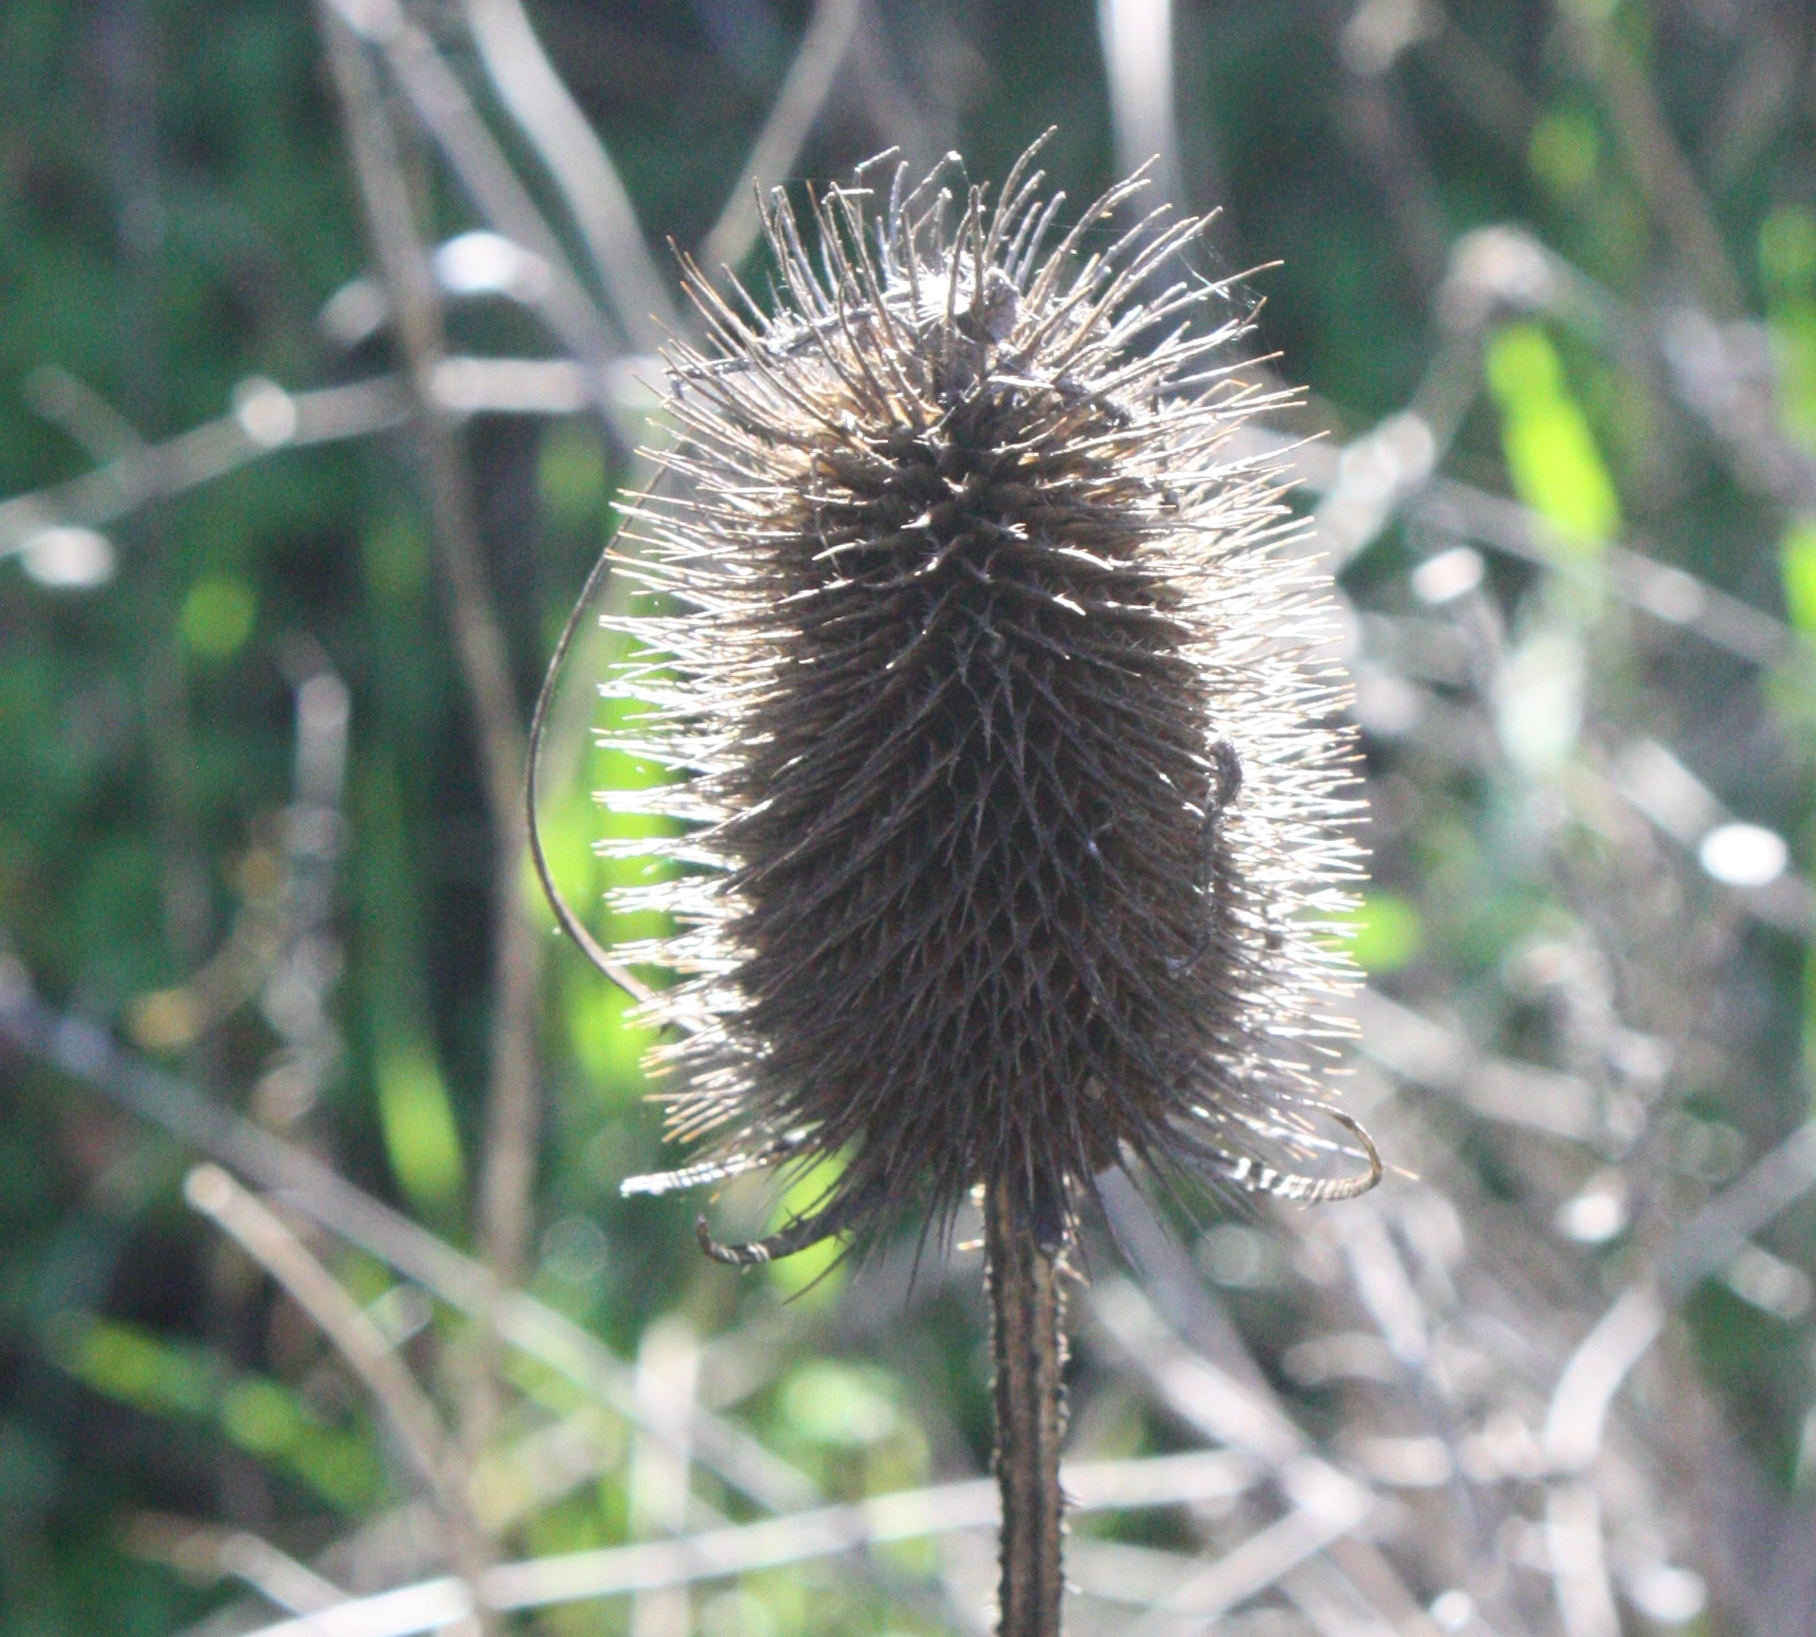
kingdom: Plantae
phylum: Tracheophyta
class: Magnoliopsida
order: Dipsacales
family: Caprifoliaceae
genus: Dipsacus
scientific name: Dipsacus fullonum
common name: Teasel
